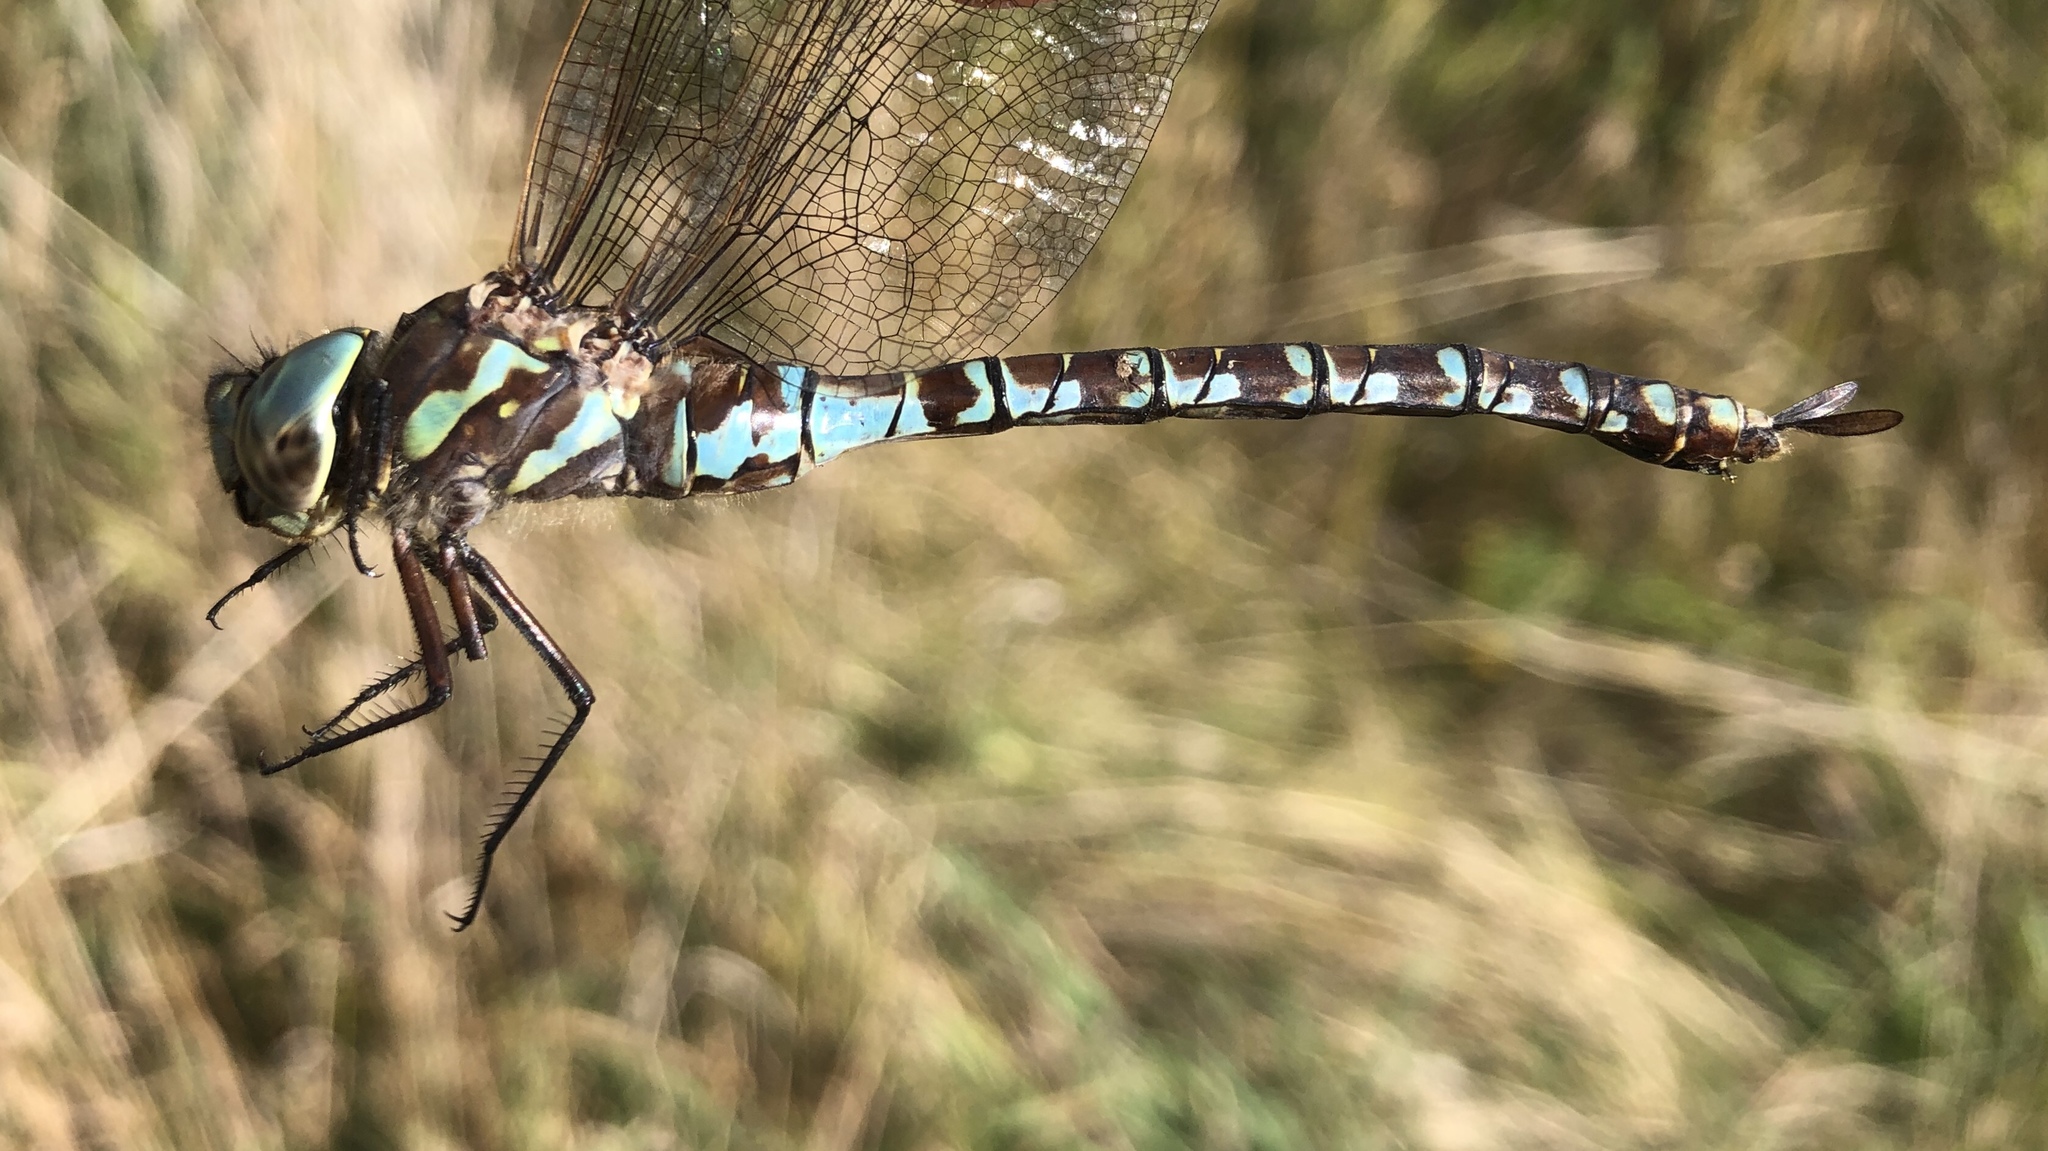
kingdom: Animalia
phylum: Arthropoda
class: Insecta
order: Odonata
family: Aeshnidae
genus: Aeshna
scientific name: Aeshna canadensis
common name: Canada darner
